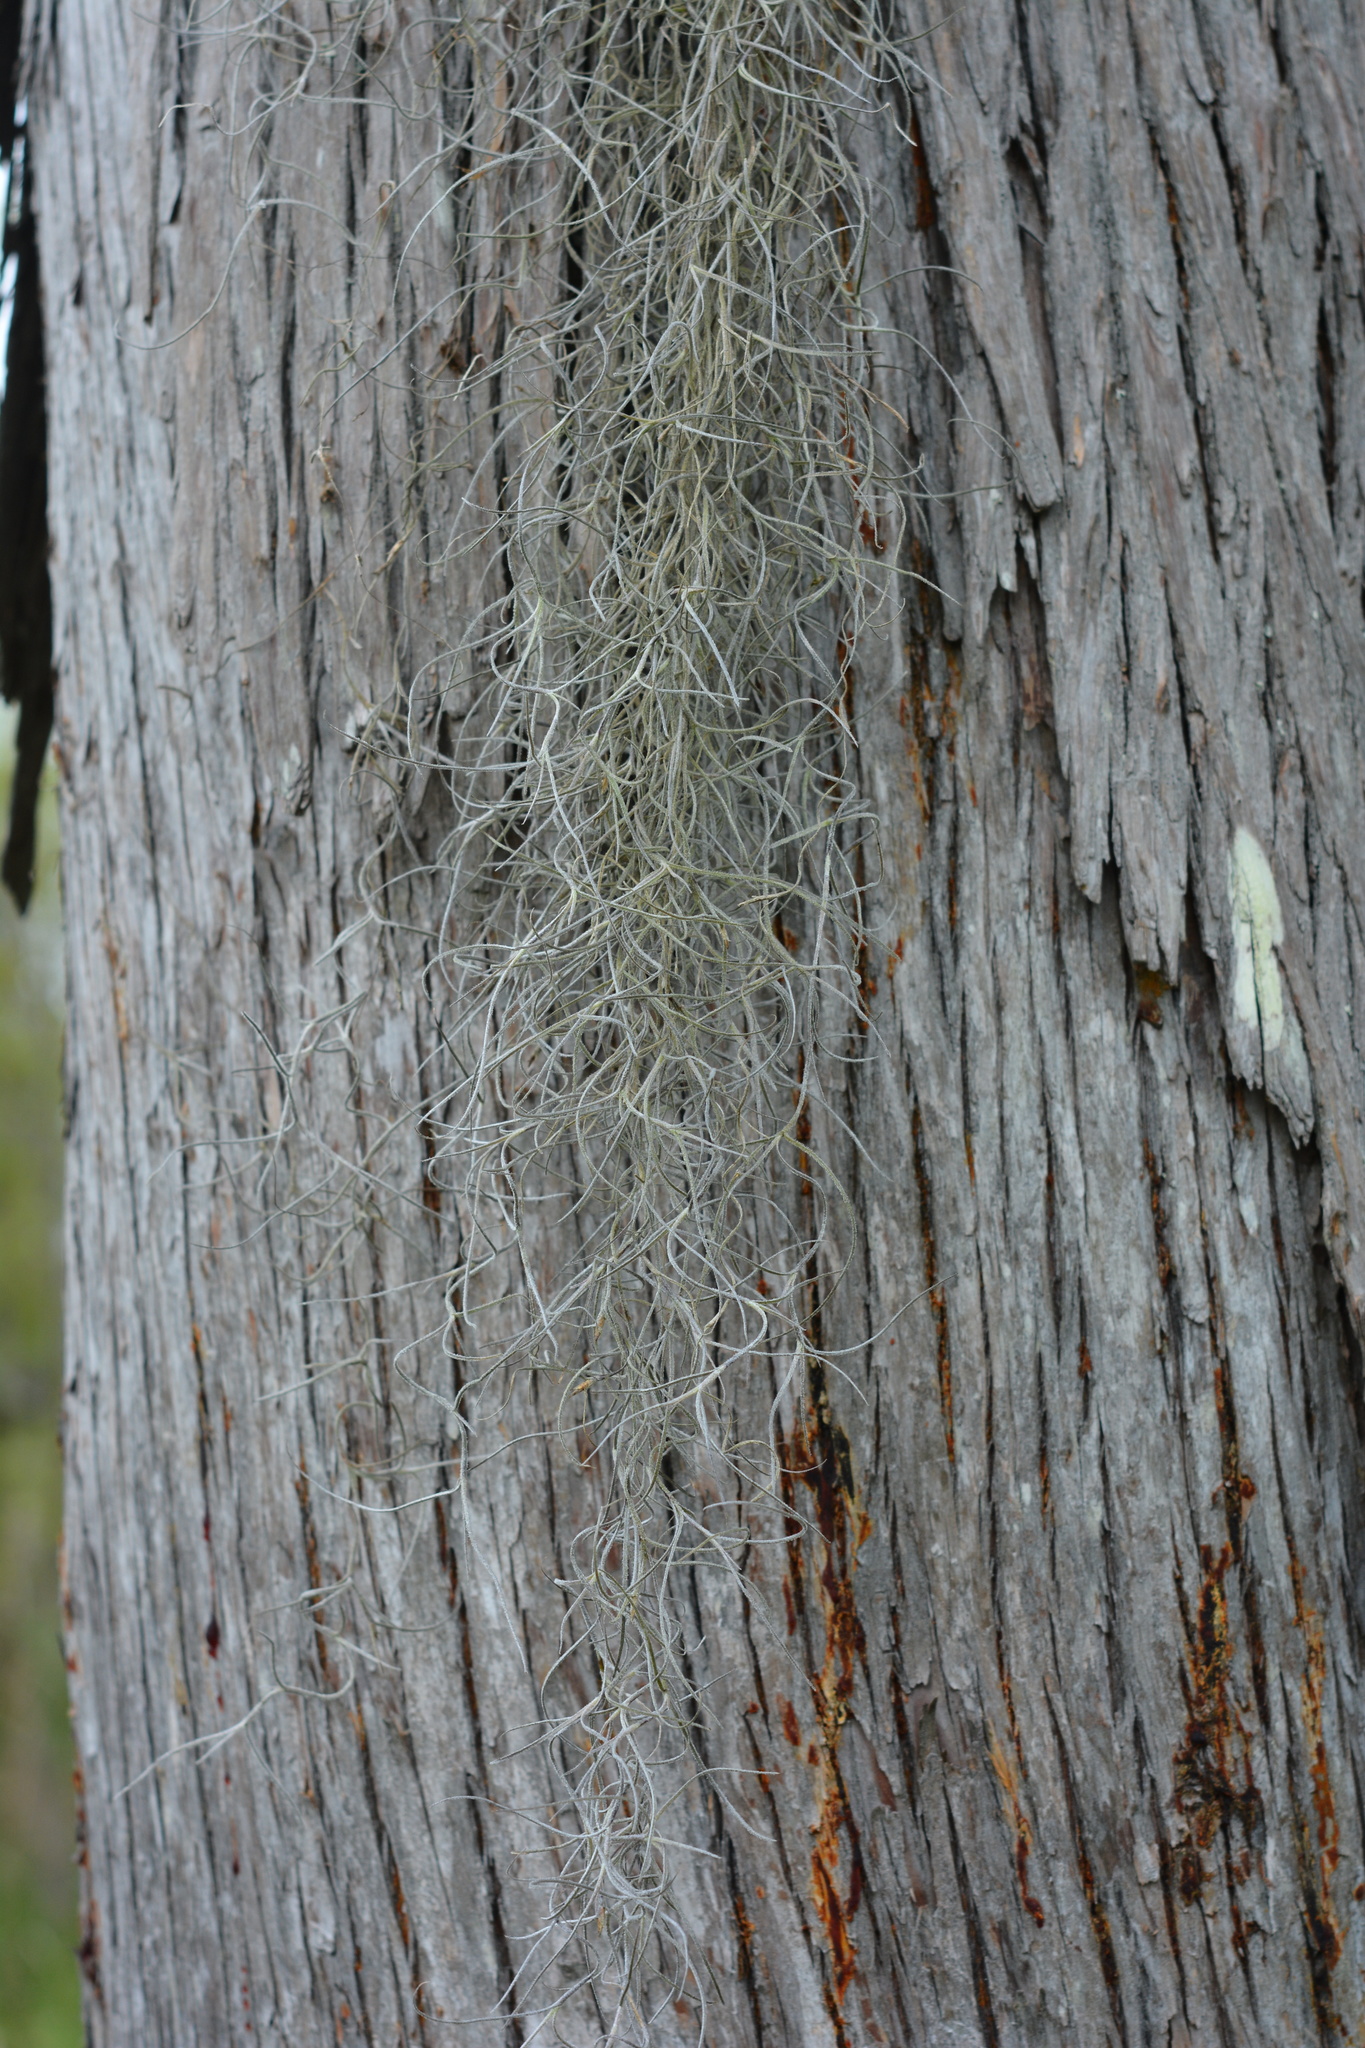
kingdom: Plantae
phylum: Tracheophyta
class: Liliopsida
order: Poales
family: Bromeliaceae
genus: Tillandsia
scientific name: Tillandsia usneoides
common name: Spanish moss
